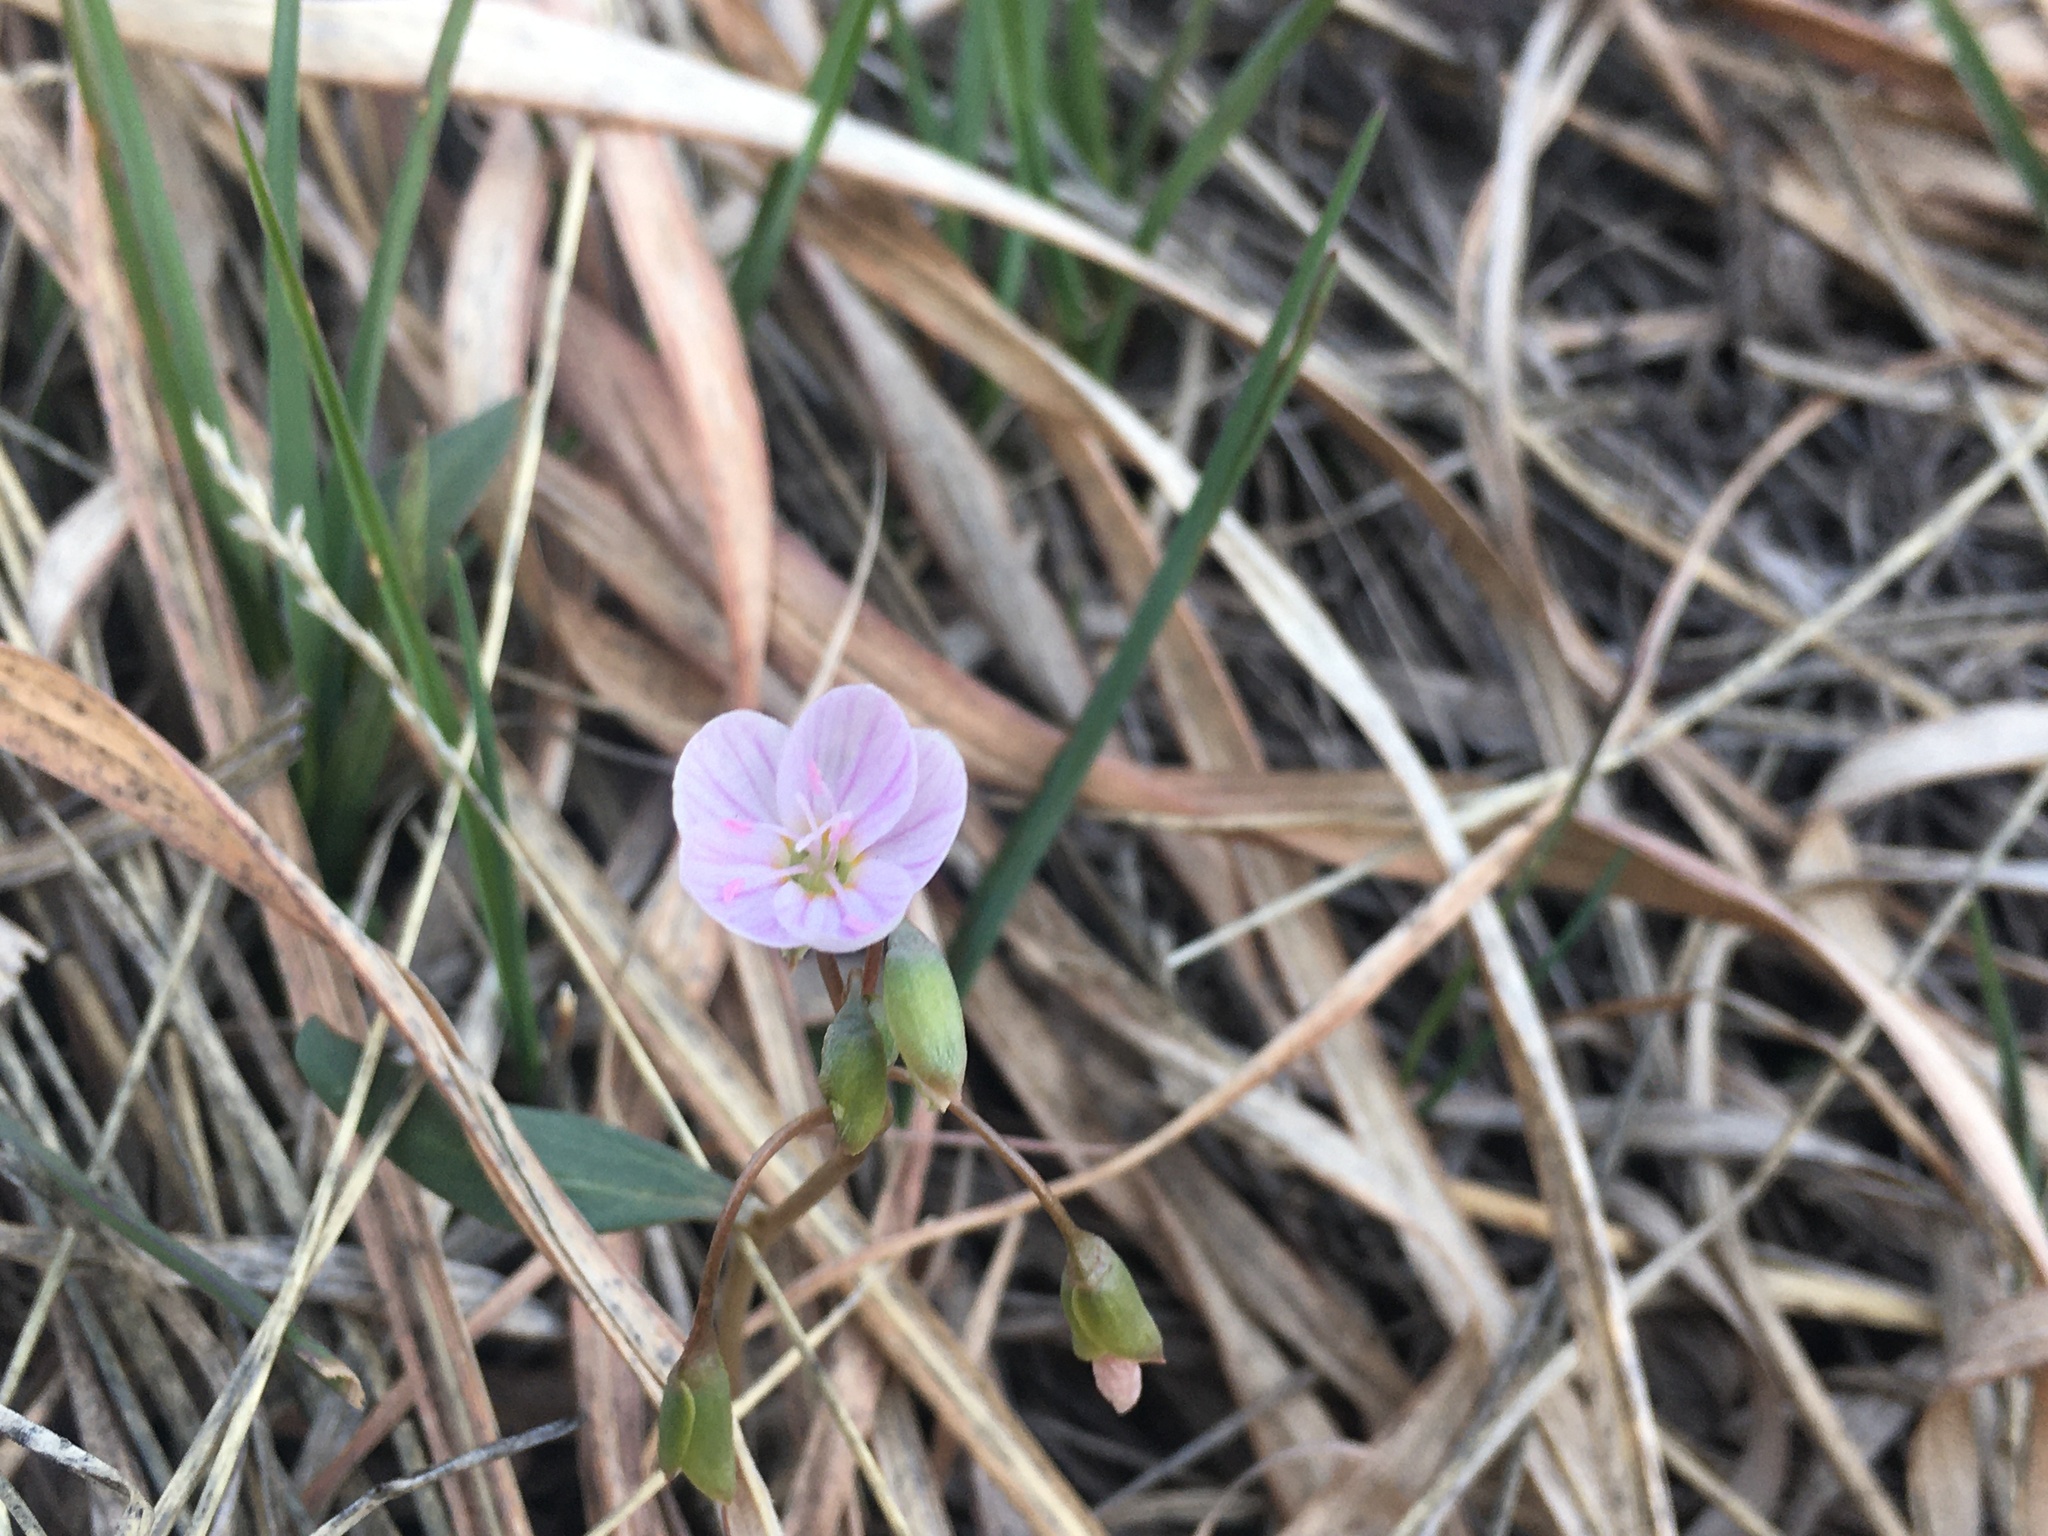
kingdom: Plantae
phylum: Tracheophyta
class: Magnoliopsida
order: Caryophyllales
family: Montiaceae
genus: Claytonia
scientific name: Claytonia rosea
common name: Rocky mountain spring-beauty
